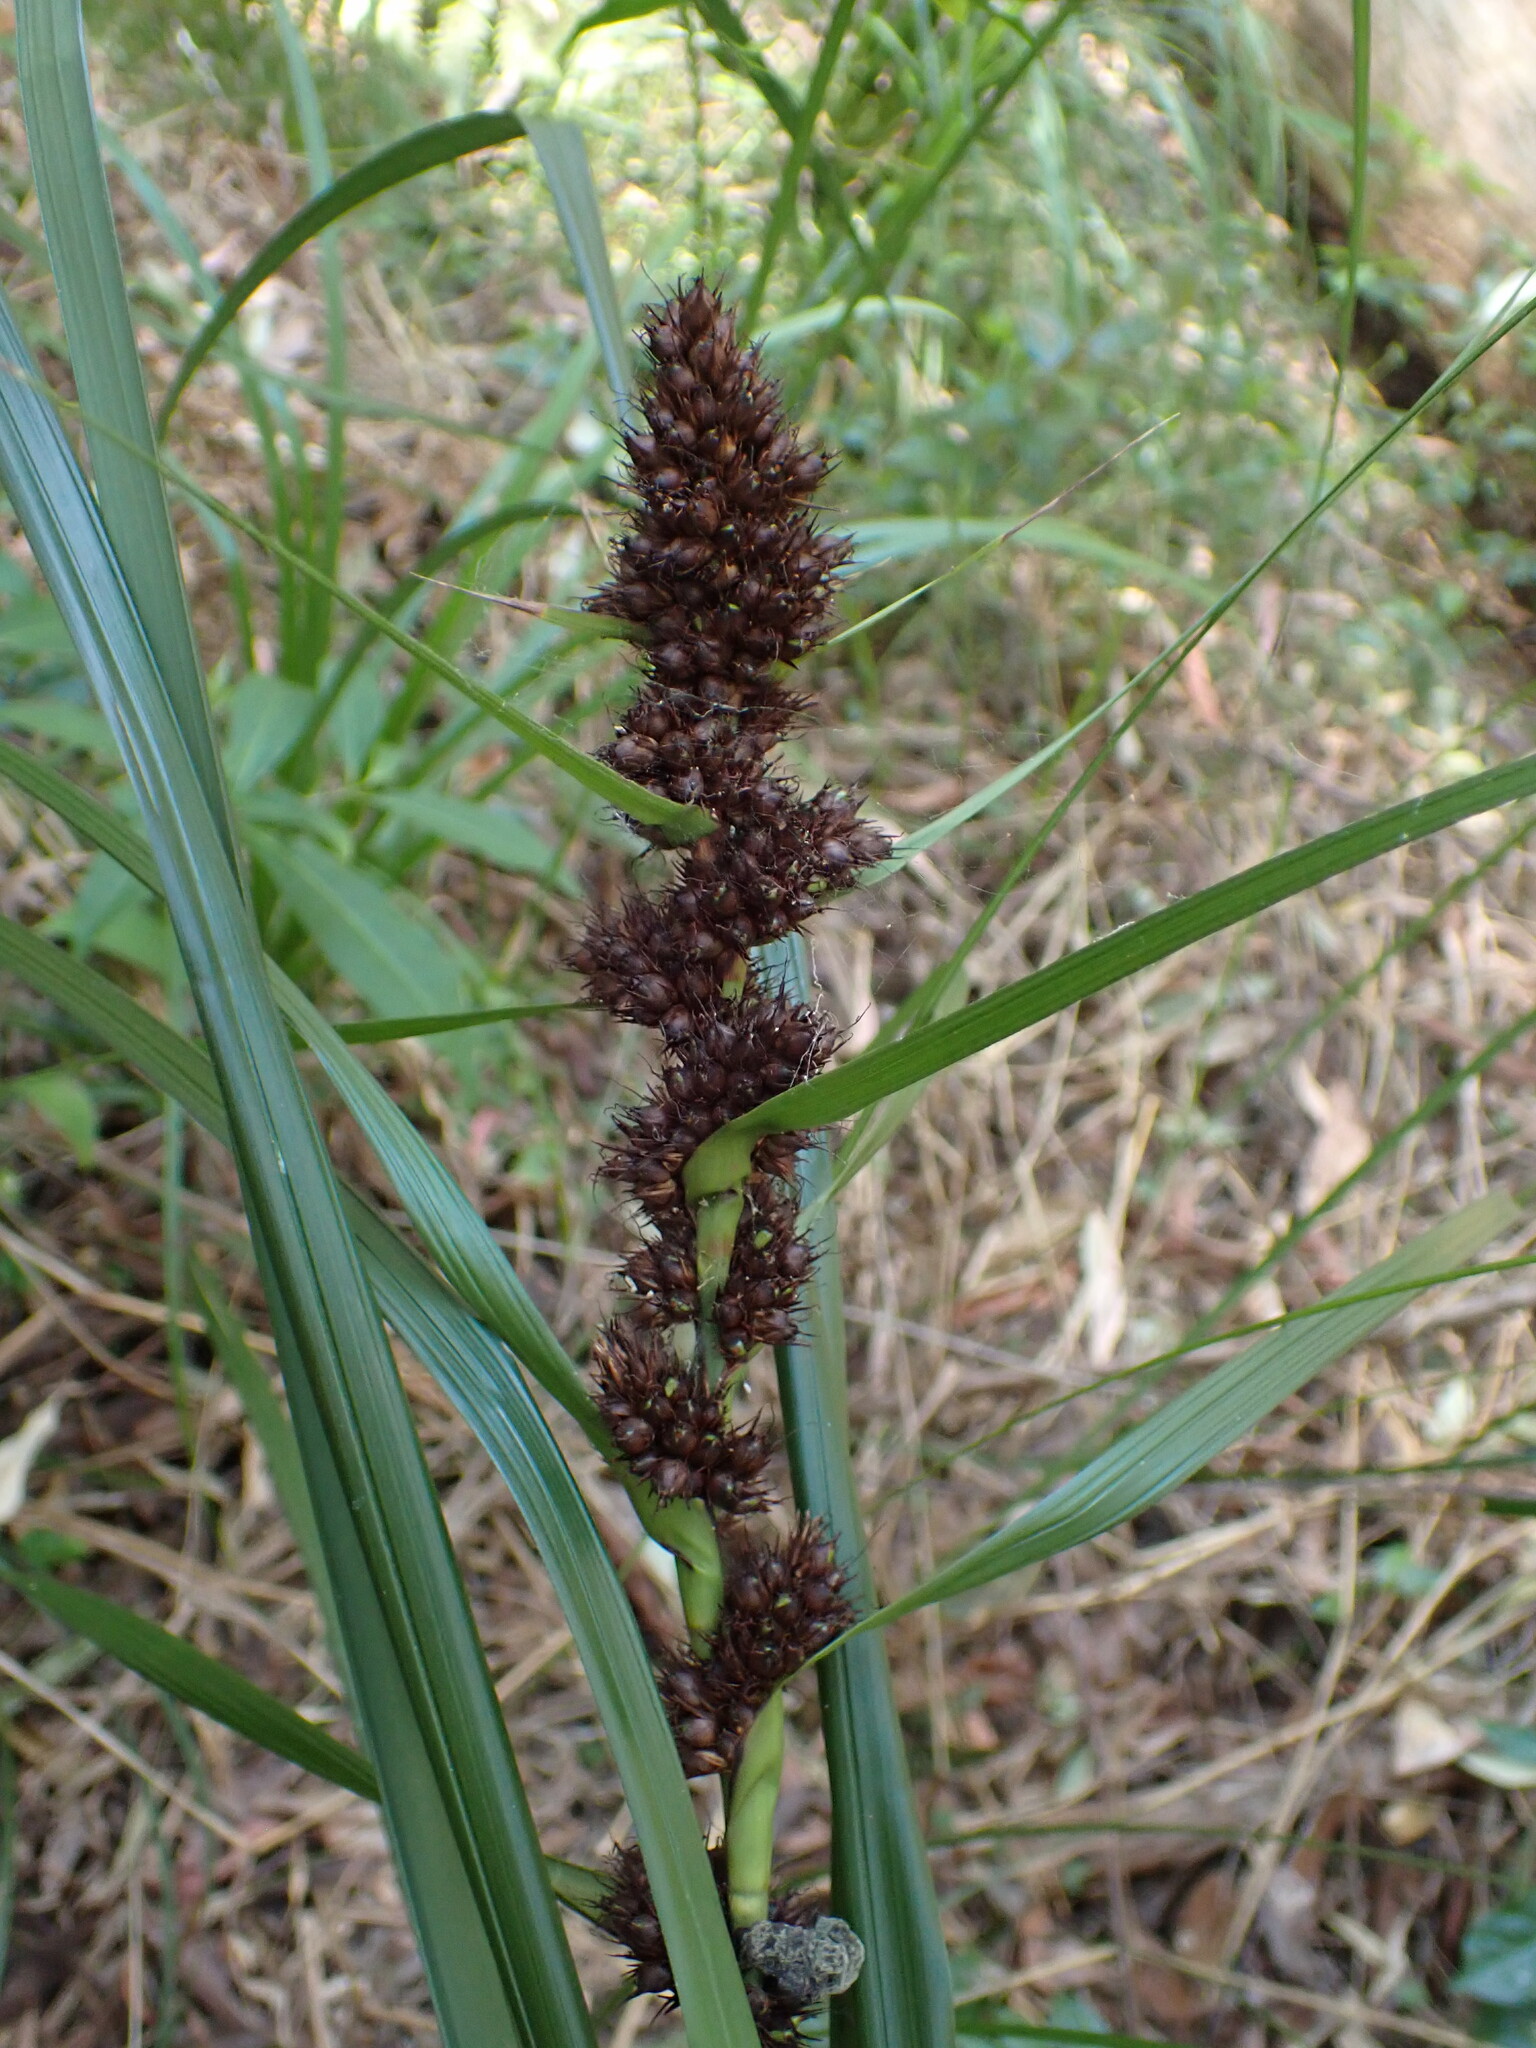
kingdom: Plantae
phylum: Tracheophyta
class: Liliopsida
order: Poales
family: Cyperaceae
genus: Gahnia
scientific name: Gahnia aspera
